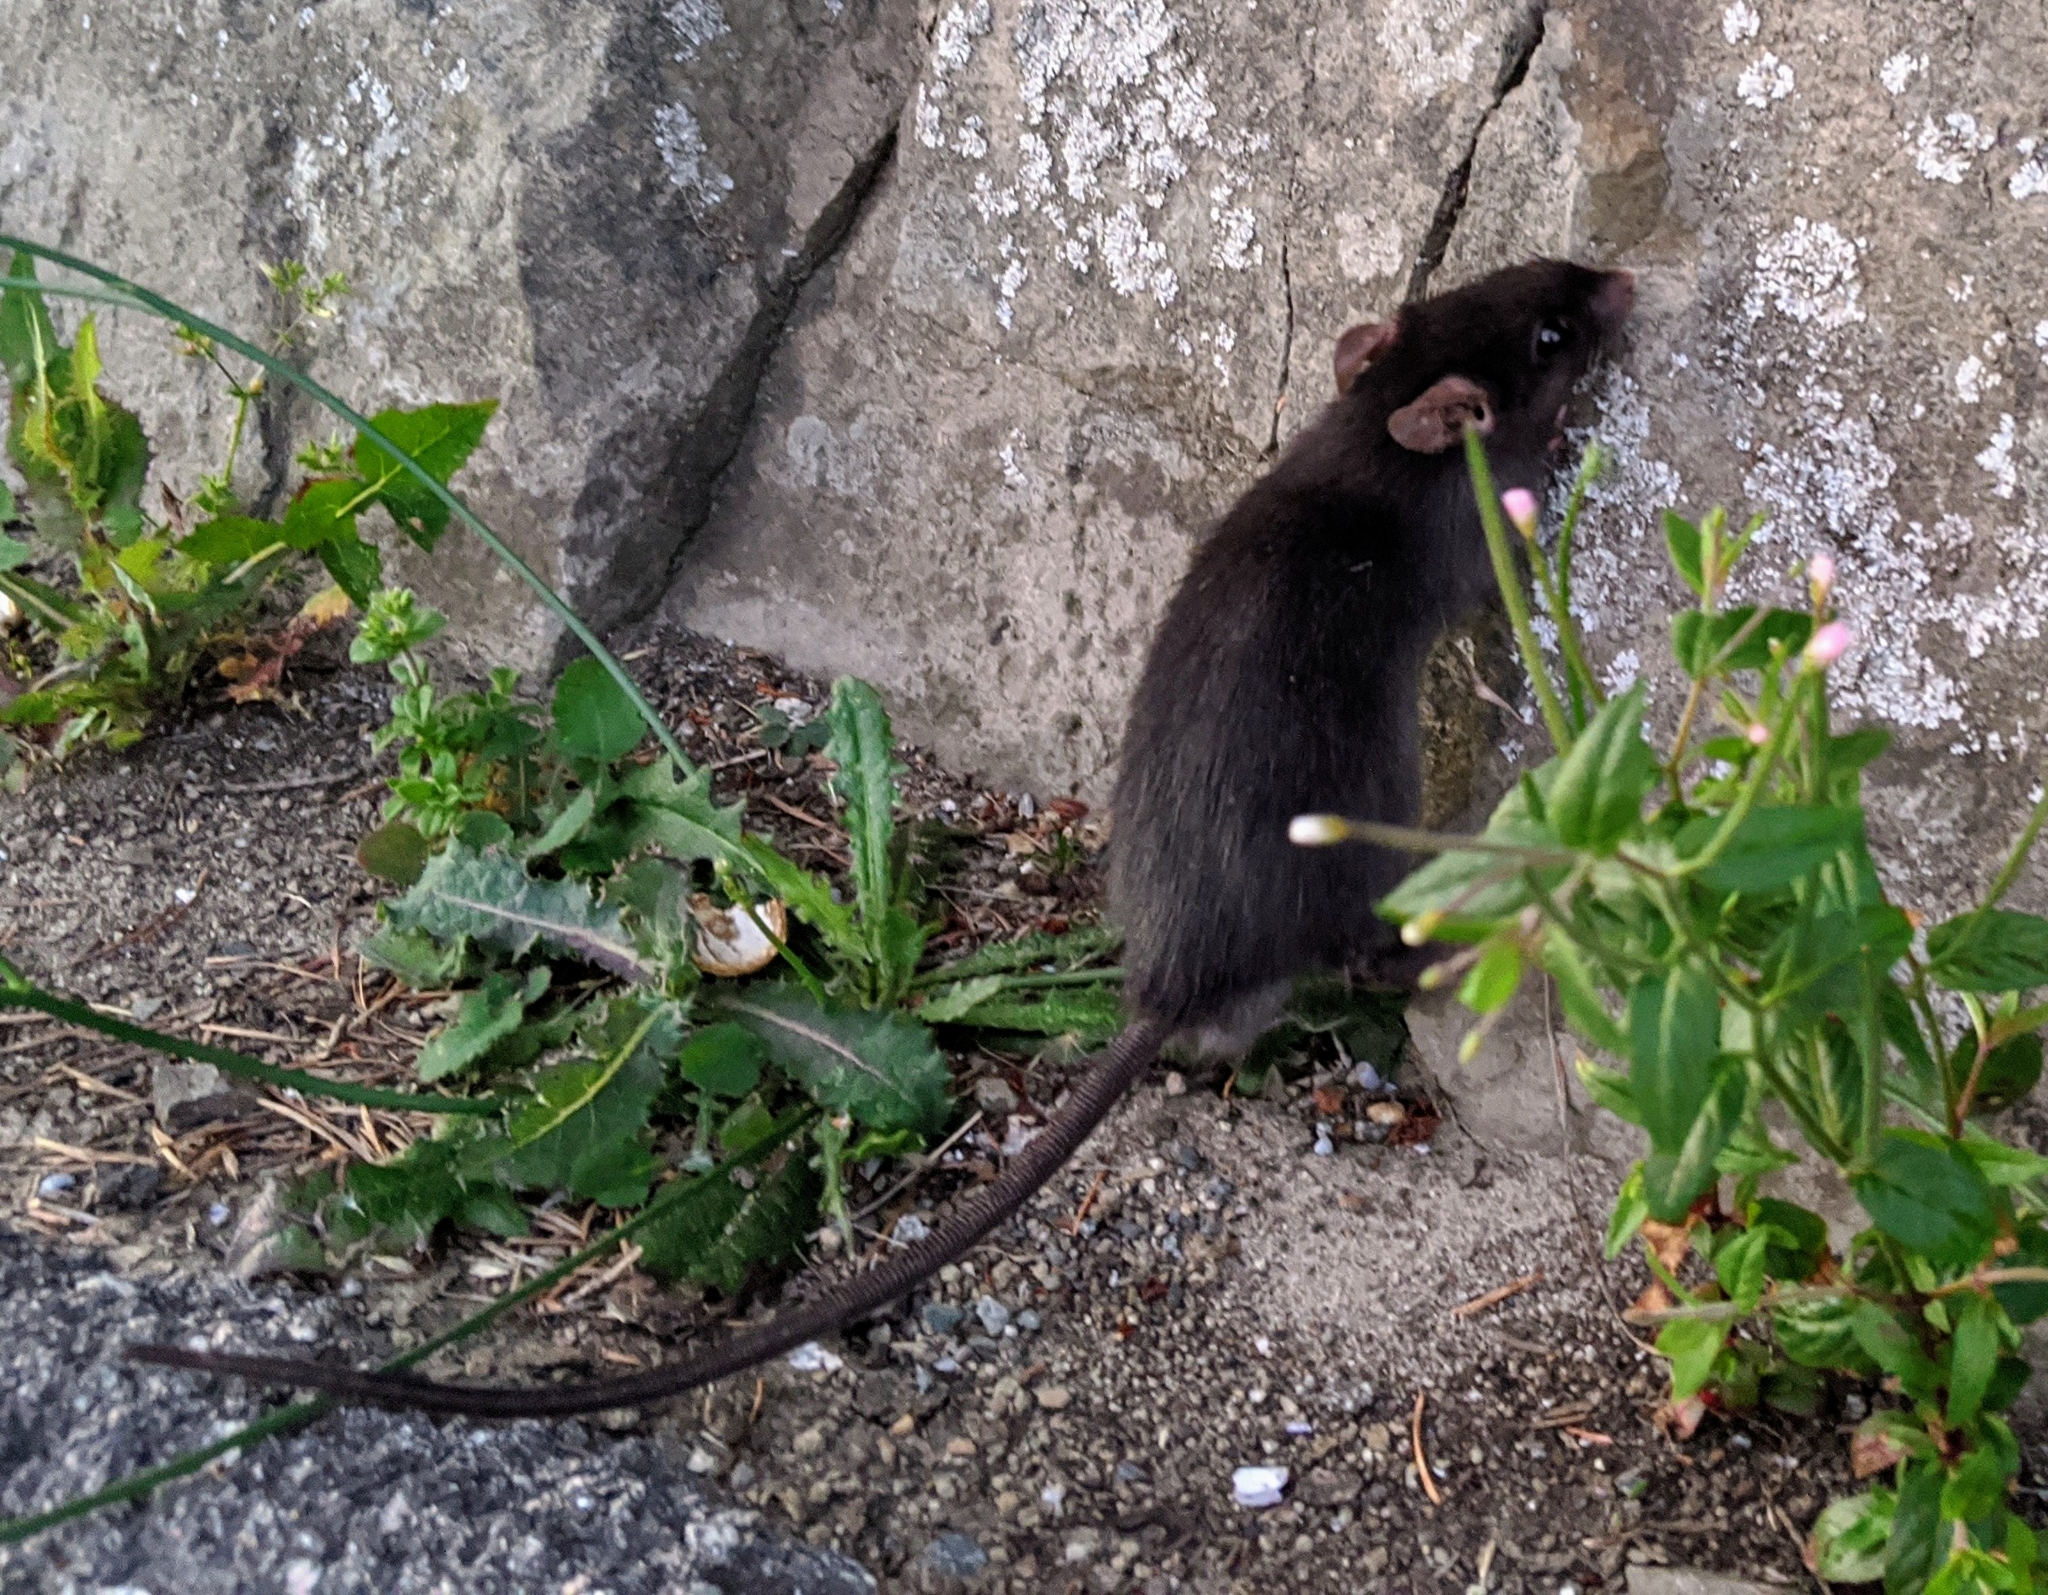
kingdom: Animalia
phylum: Chordata
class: Mammalia
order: Rodentia
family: Muridae
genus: Rattus
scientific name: Rattus rattus
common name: Black rat
